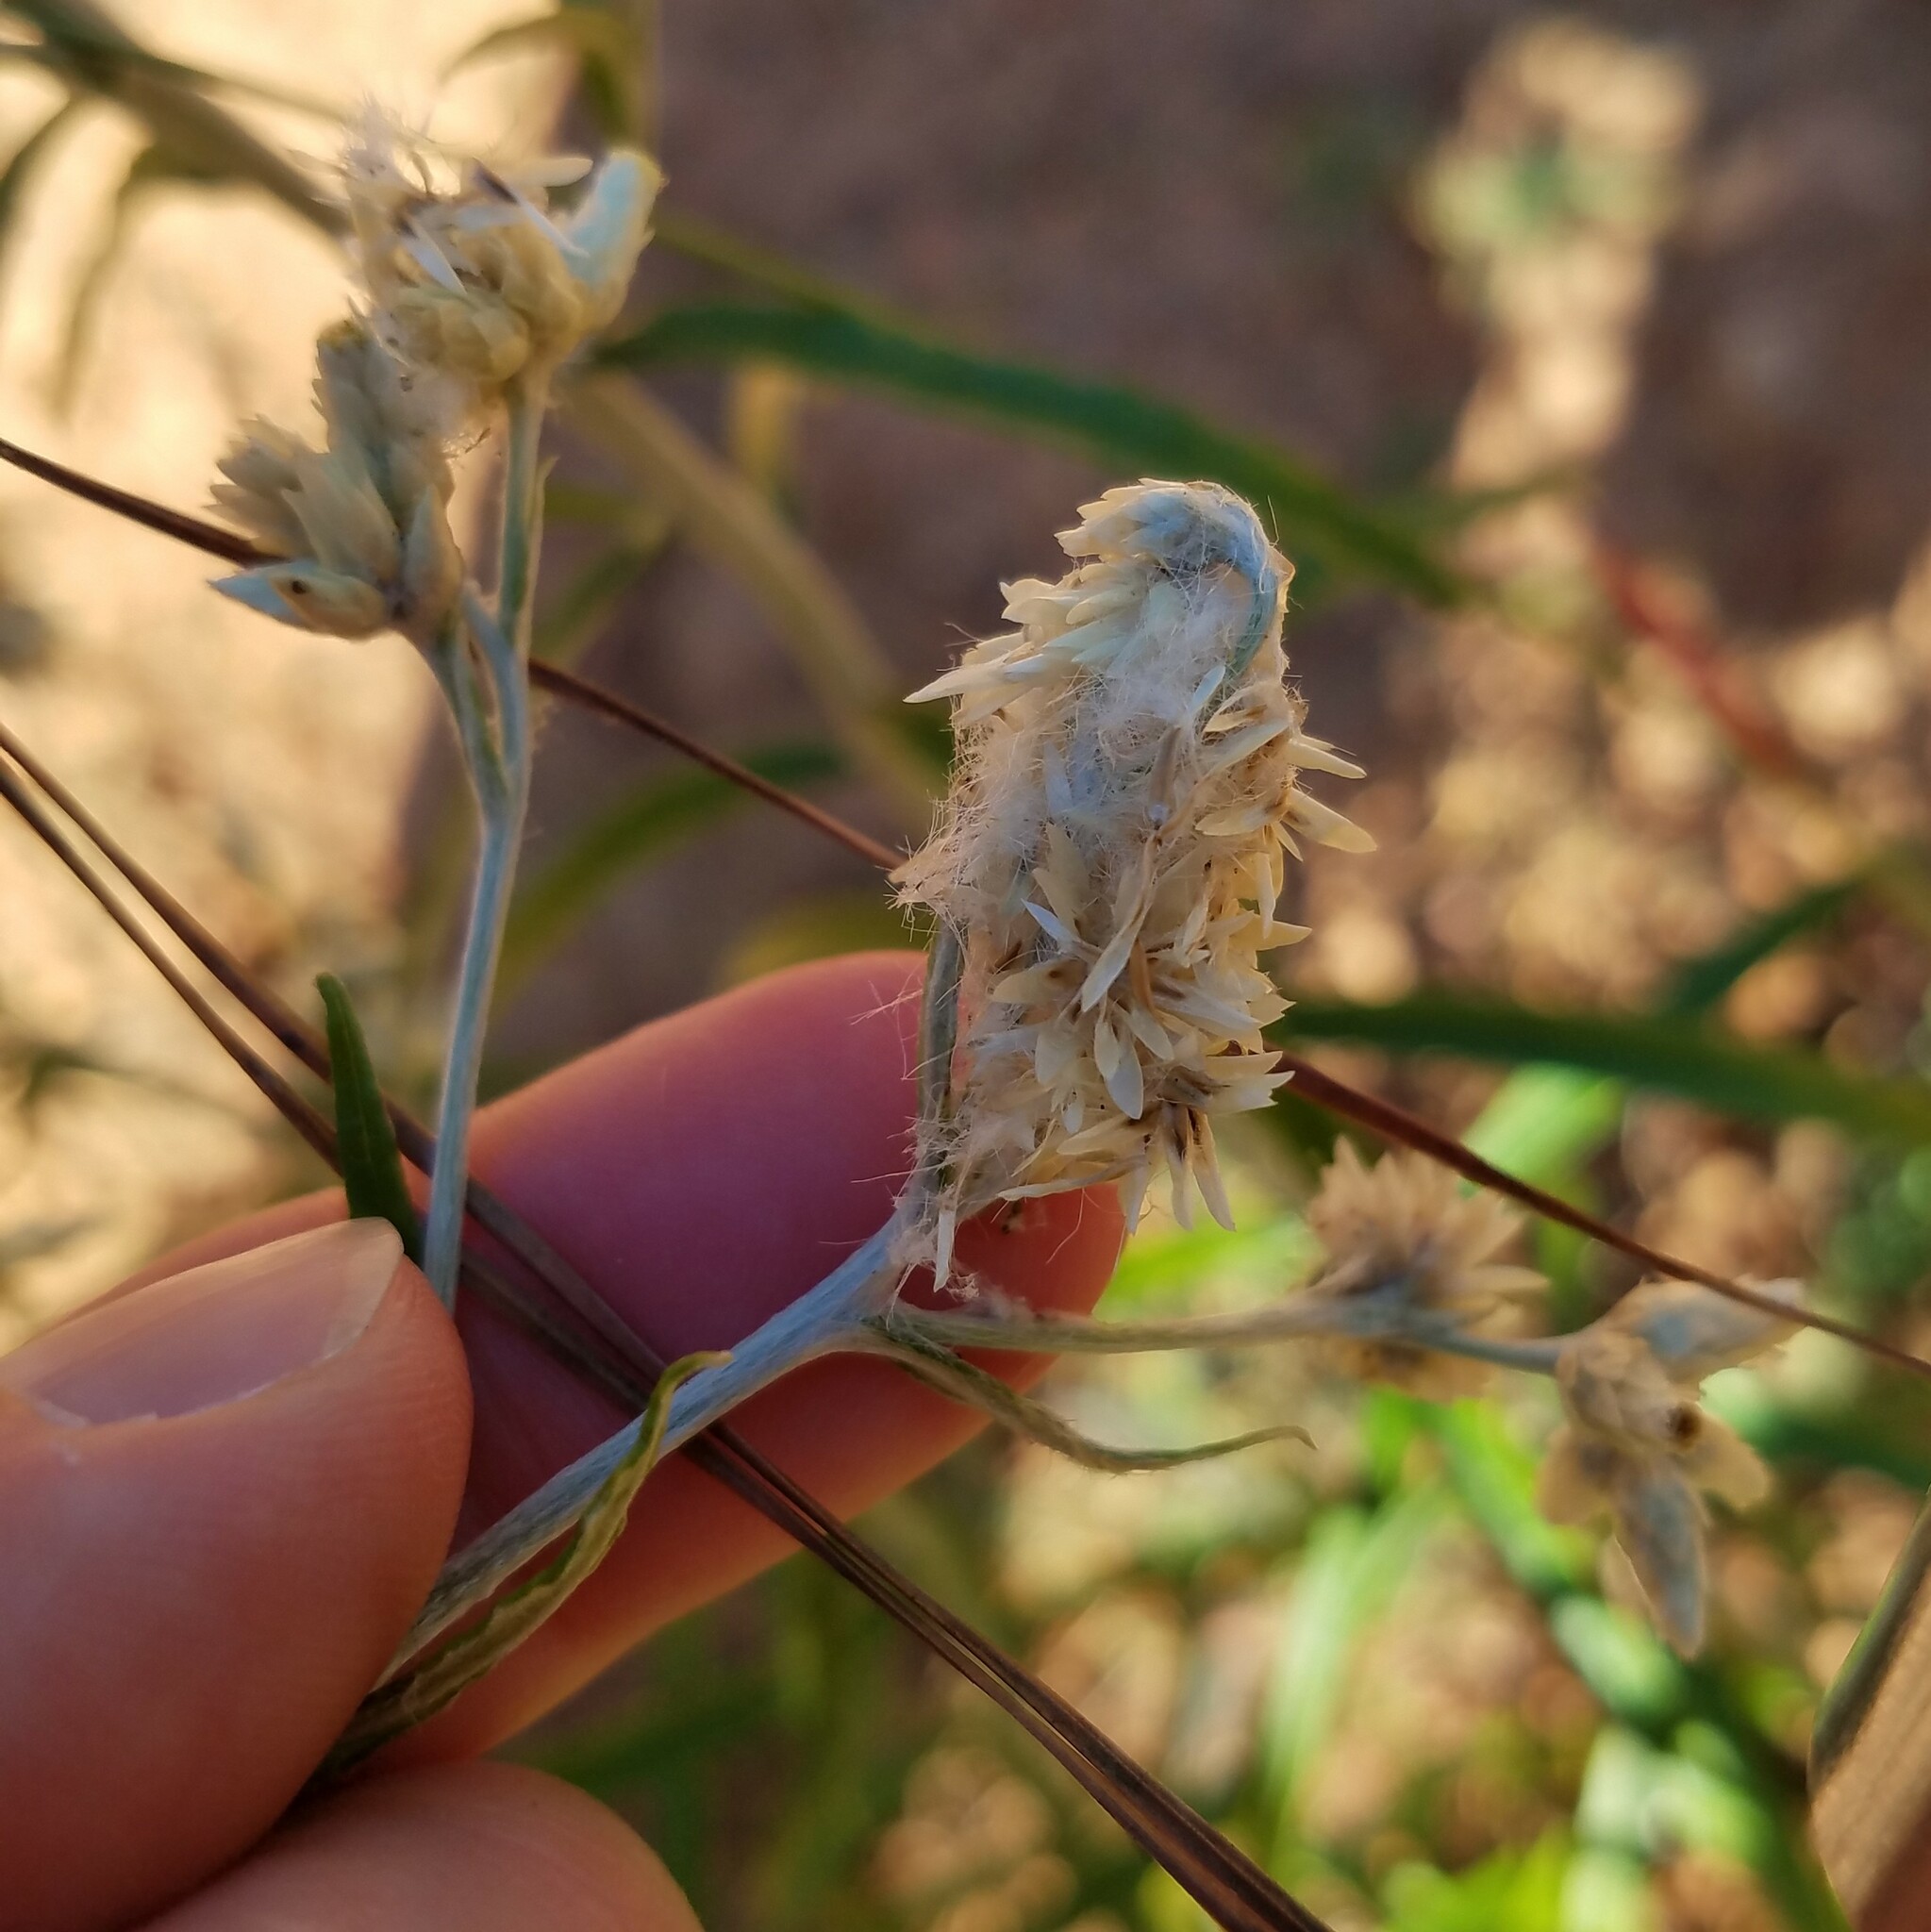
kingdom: Plantae
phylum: Tracheophyta
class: Magnoliopsida
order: Asterales
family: Asteraceae
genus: Pseudognaphalium
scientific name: Pseudognaphalium obtusifolium
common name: Eastern rabbit-tobacco
